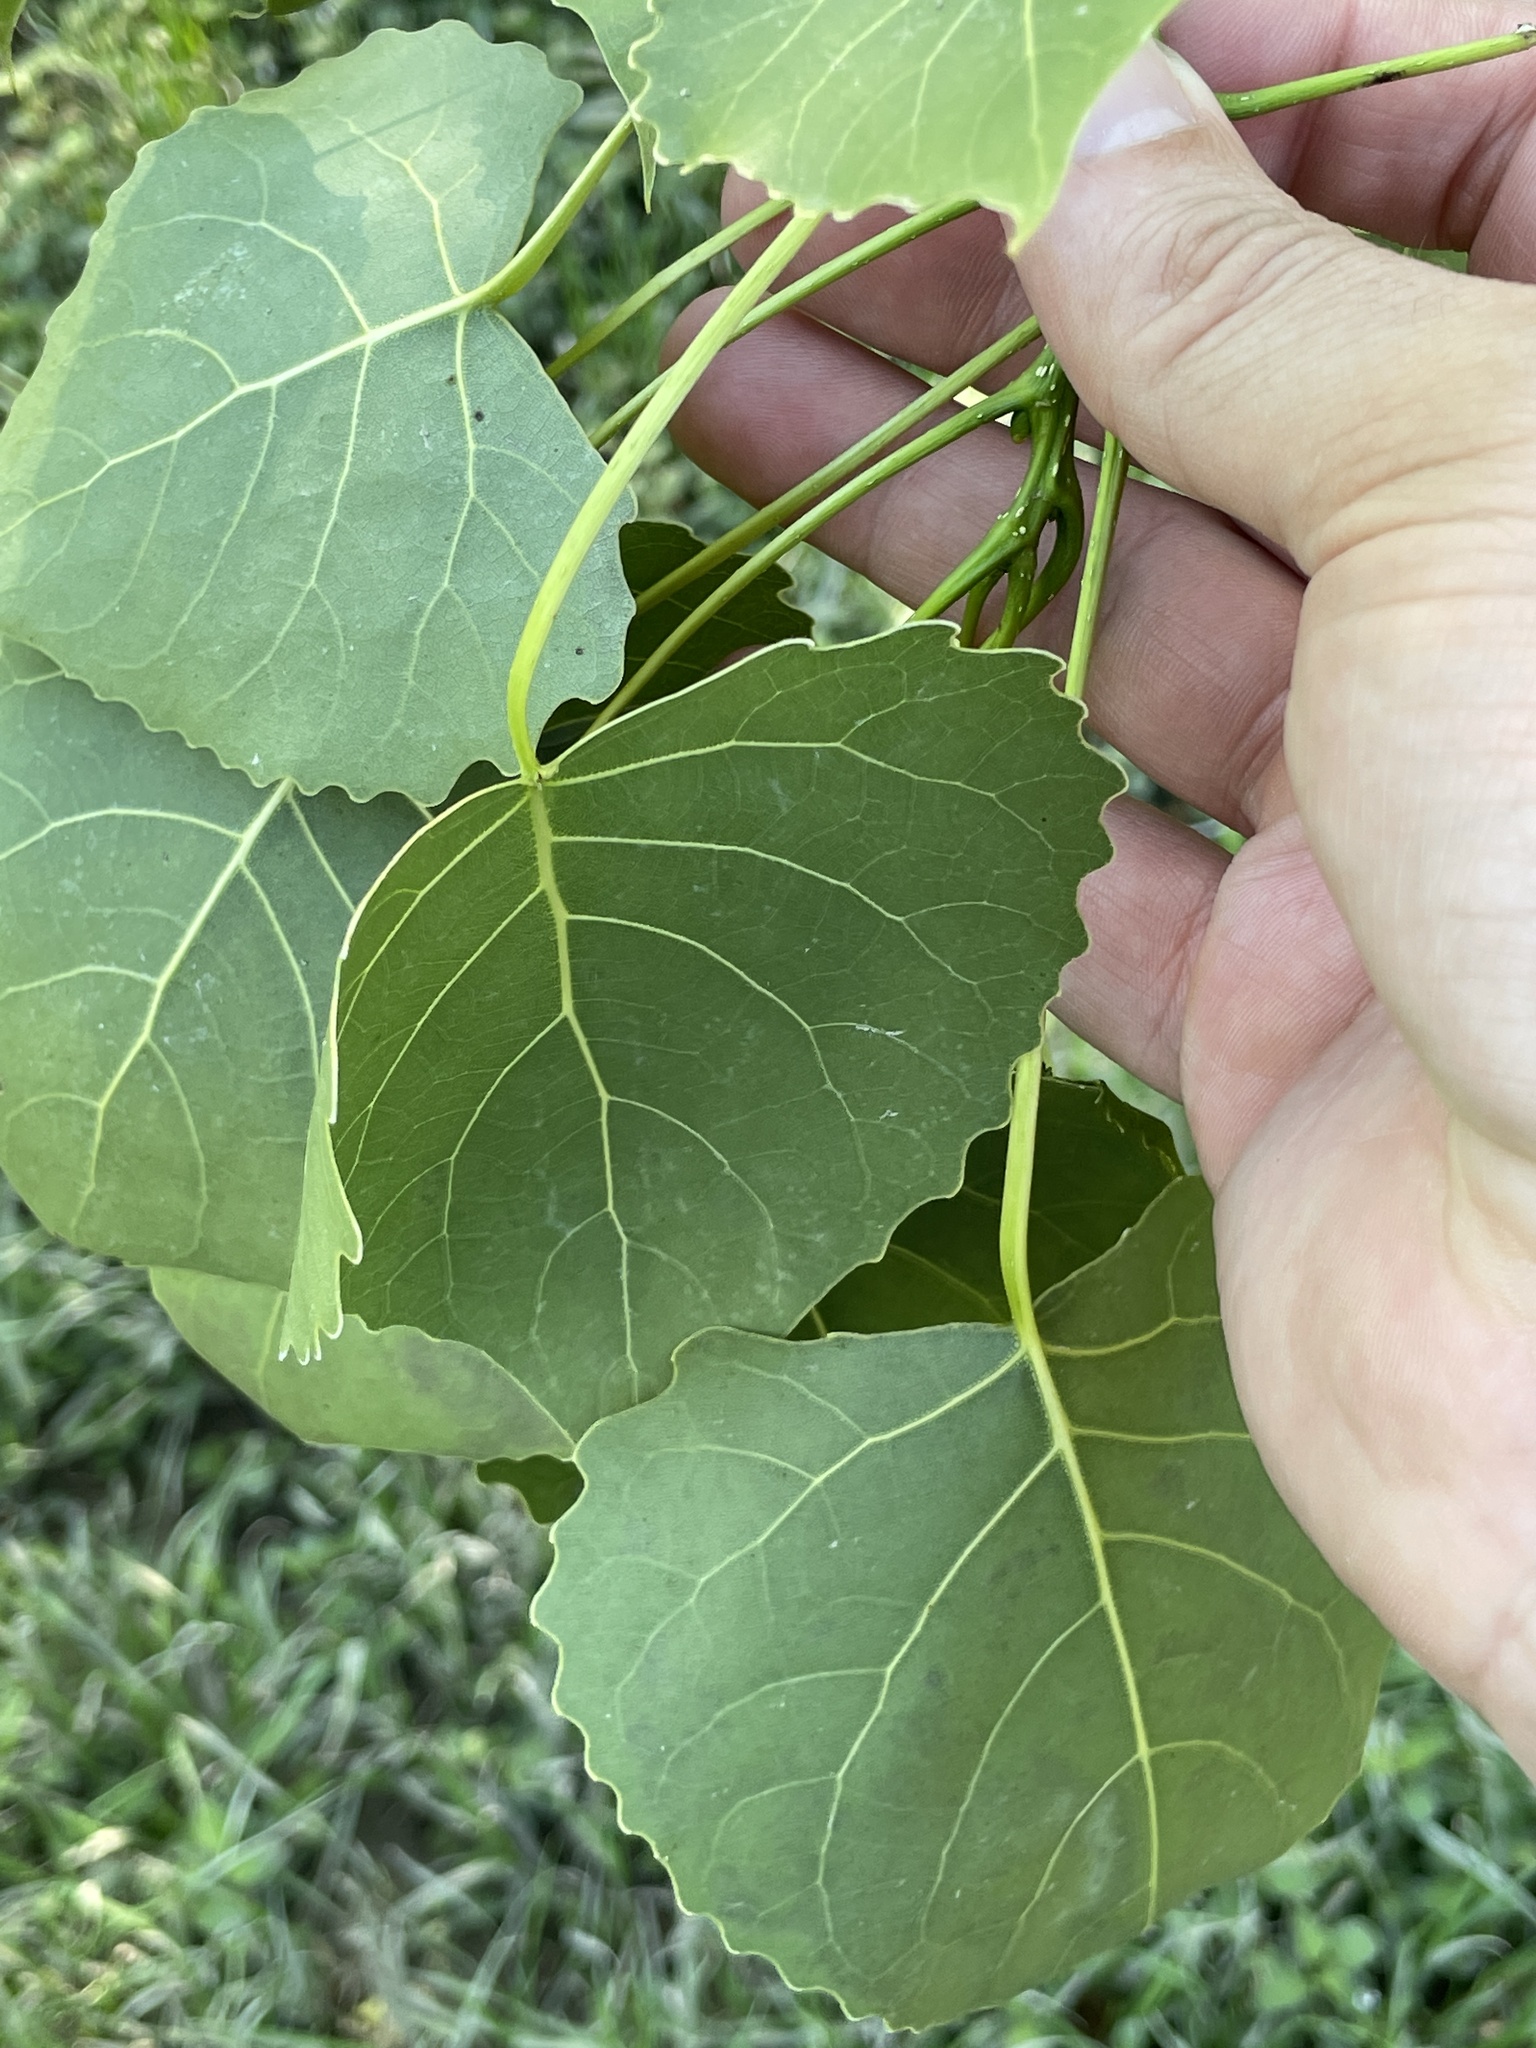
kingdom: Plantae
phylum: Tracheophyta
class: Magnoliopsida
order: Malpighiales
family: Salicaceae
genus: Populus
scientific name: Populus deltoides
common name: Eastern cottonwood
